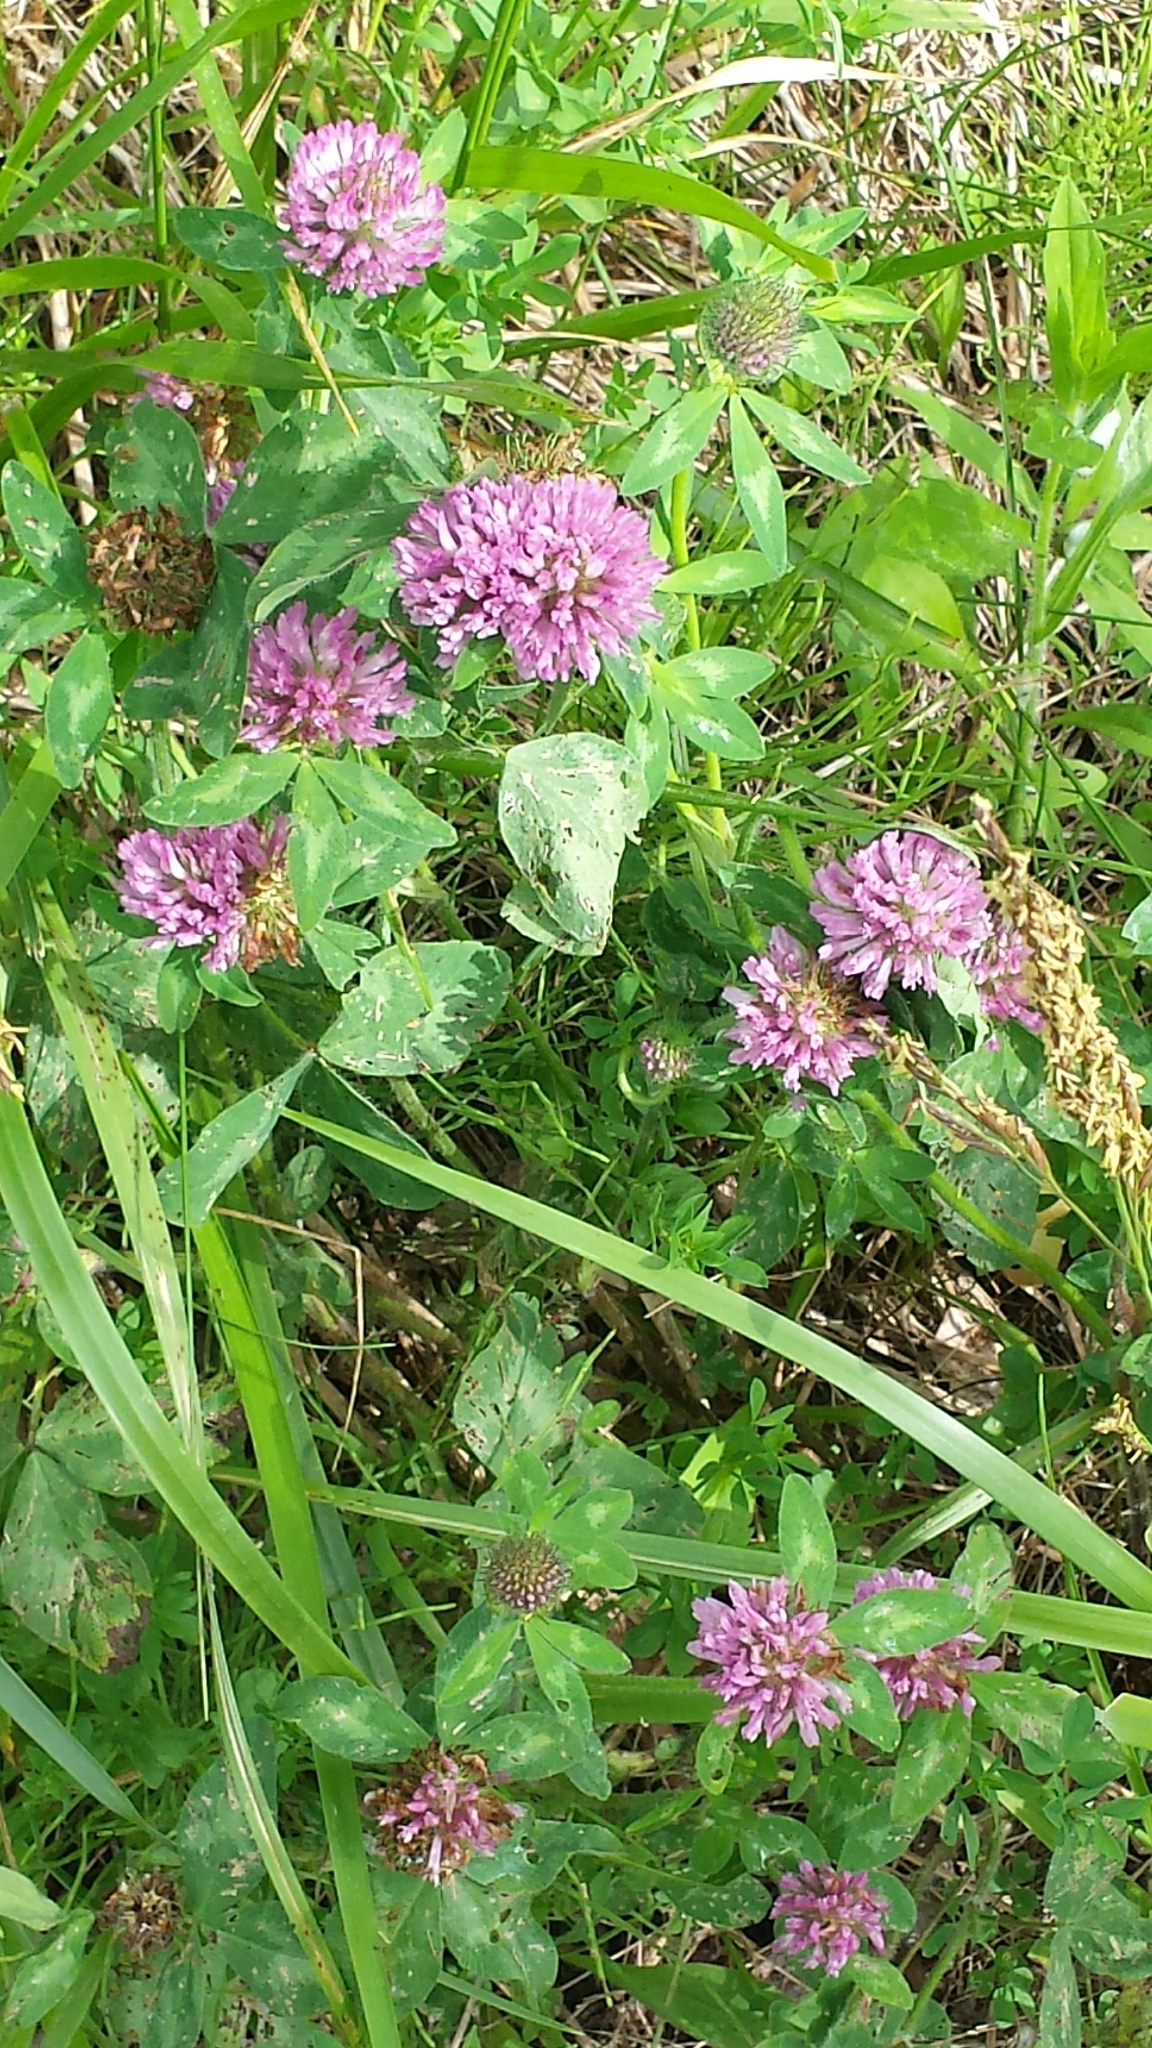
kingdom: Plantae
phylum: Tracheophyta
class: Magnoliopsida
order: Fabales
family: Fabaceae
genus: Trifolium
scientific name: Trifolium pratense
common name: Red clover
